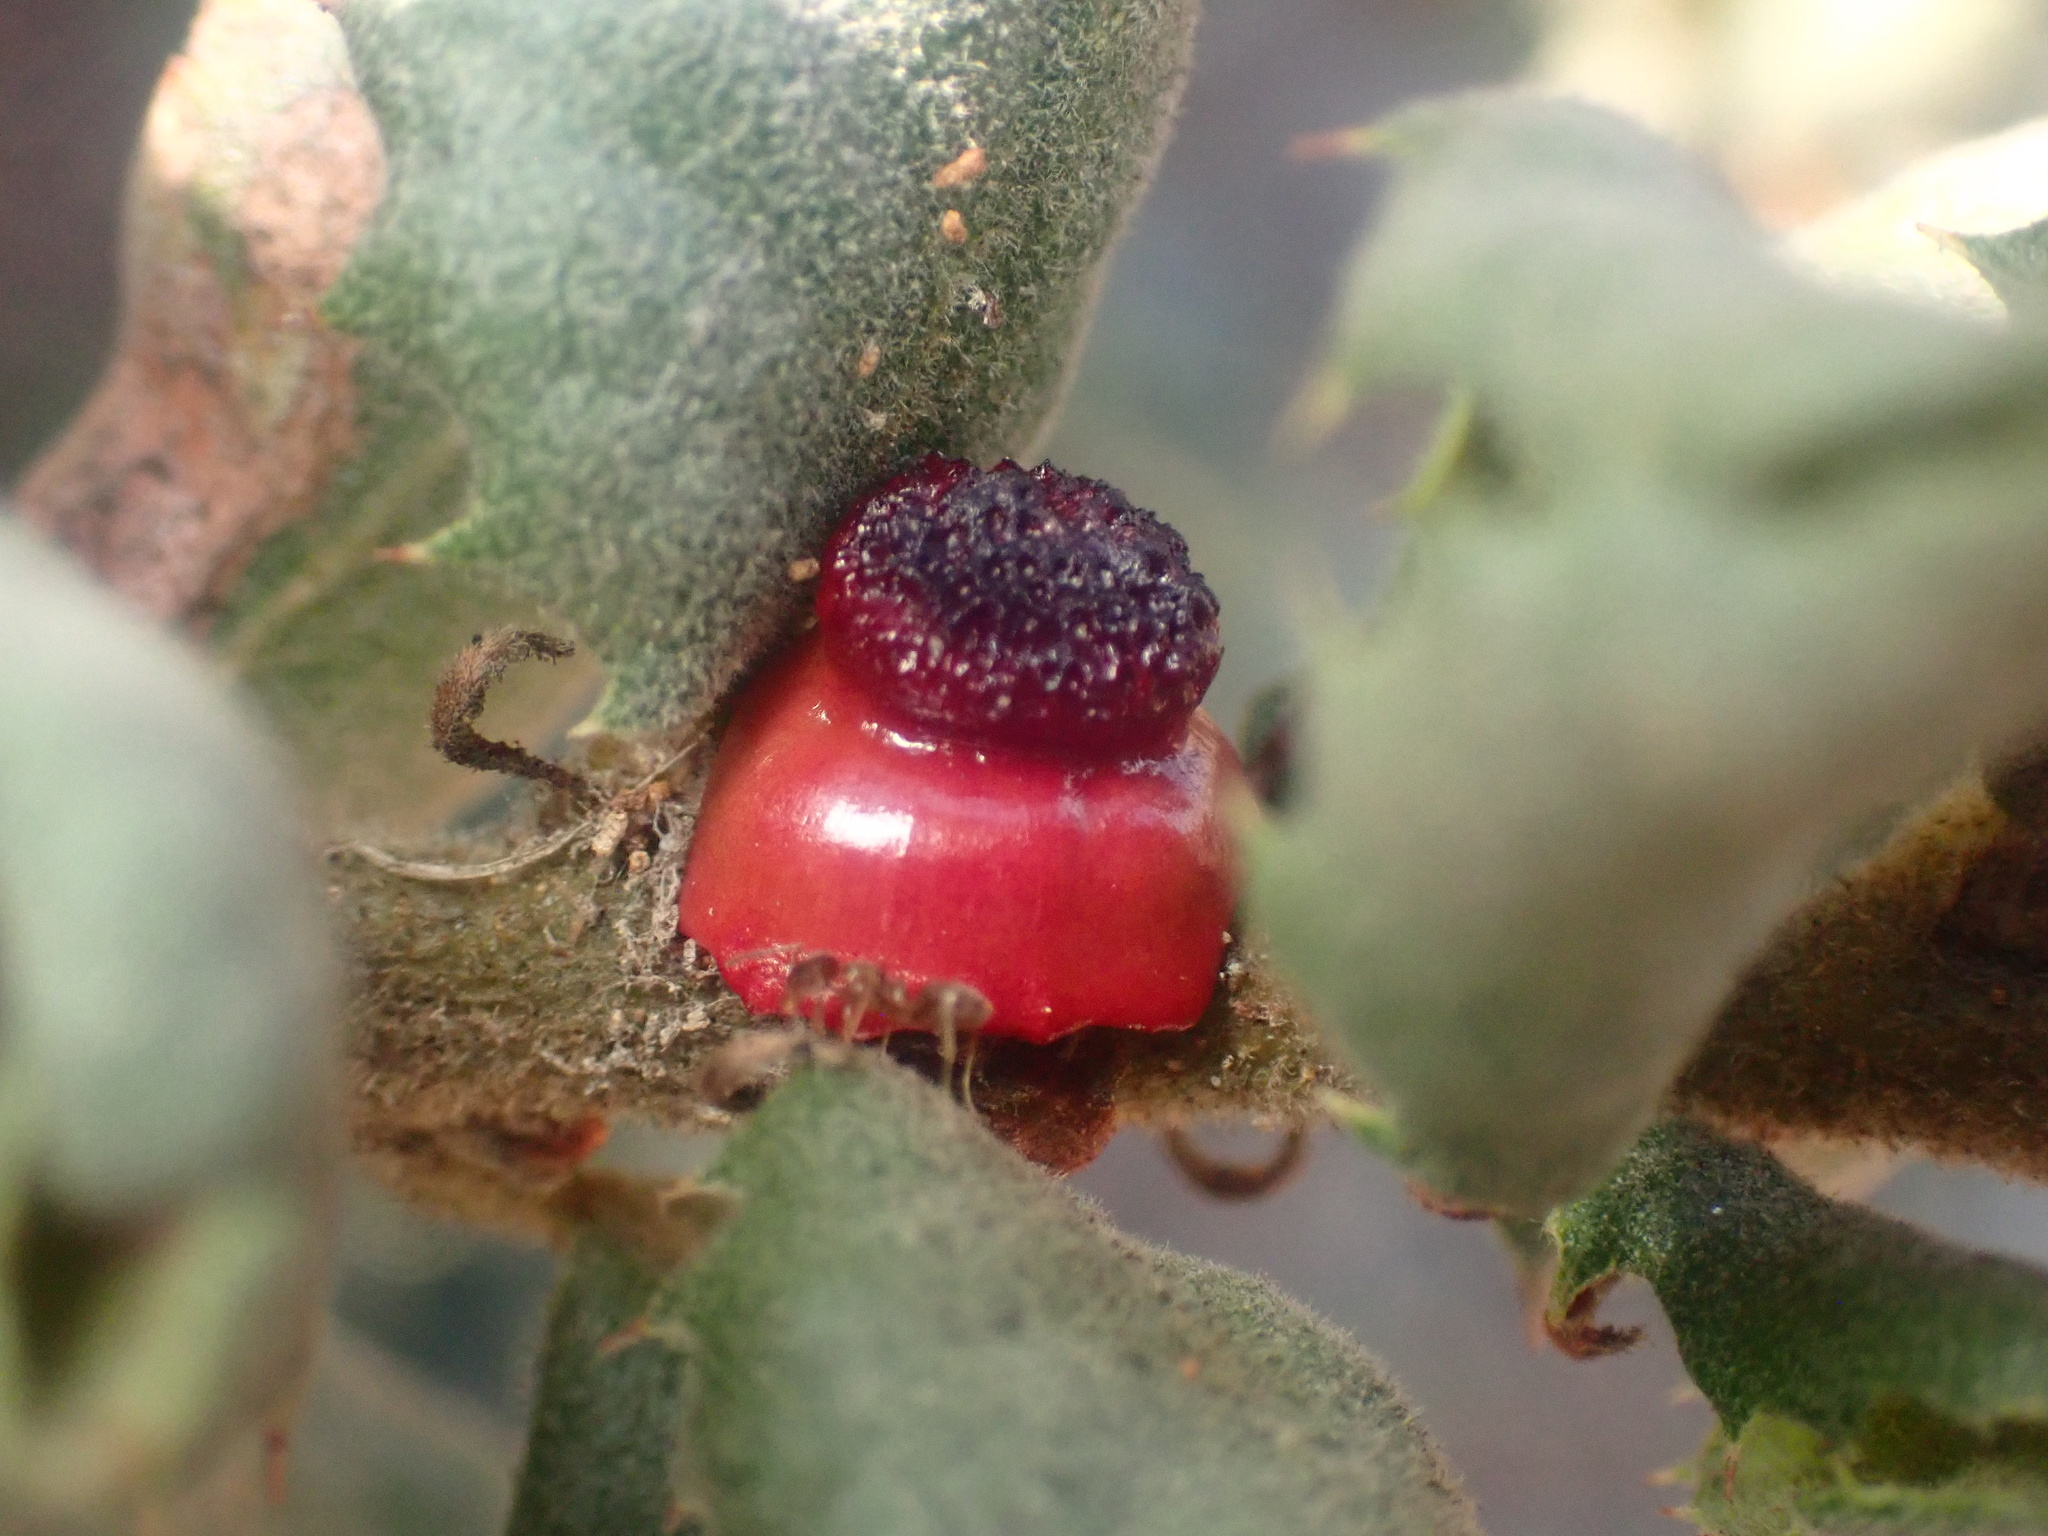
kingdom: Animalia
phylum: Arthropoda
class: Insecta
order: Hymenoptera
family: Cynipidae
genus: Disholcaspis
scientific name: Disholcaspis prehensa
